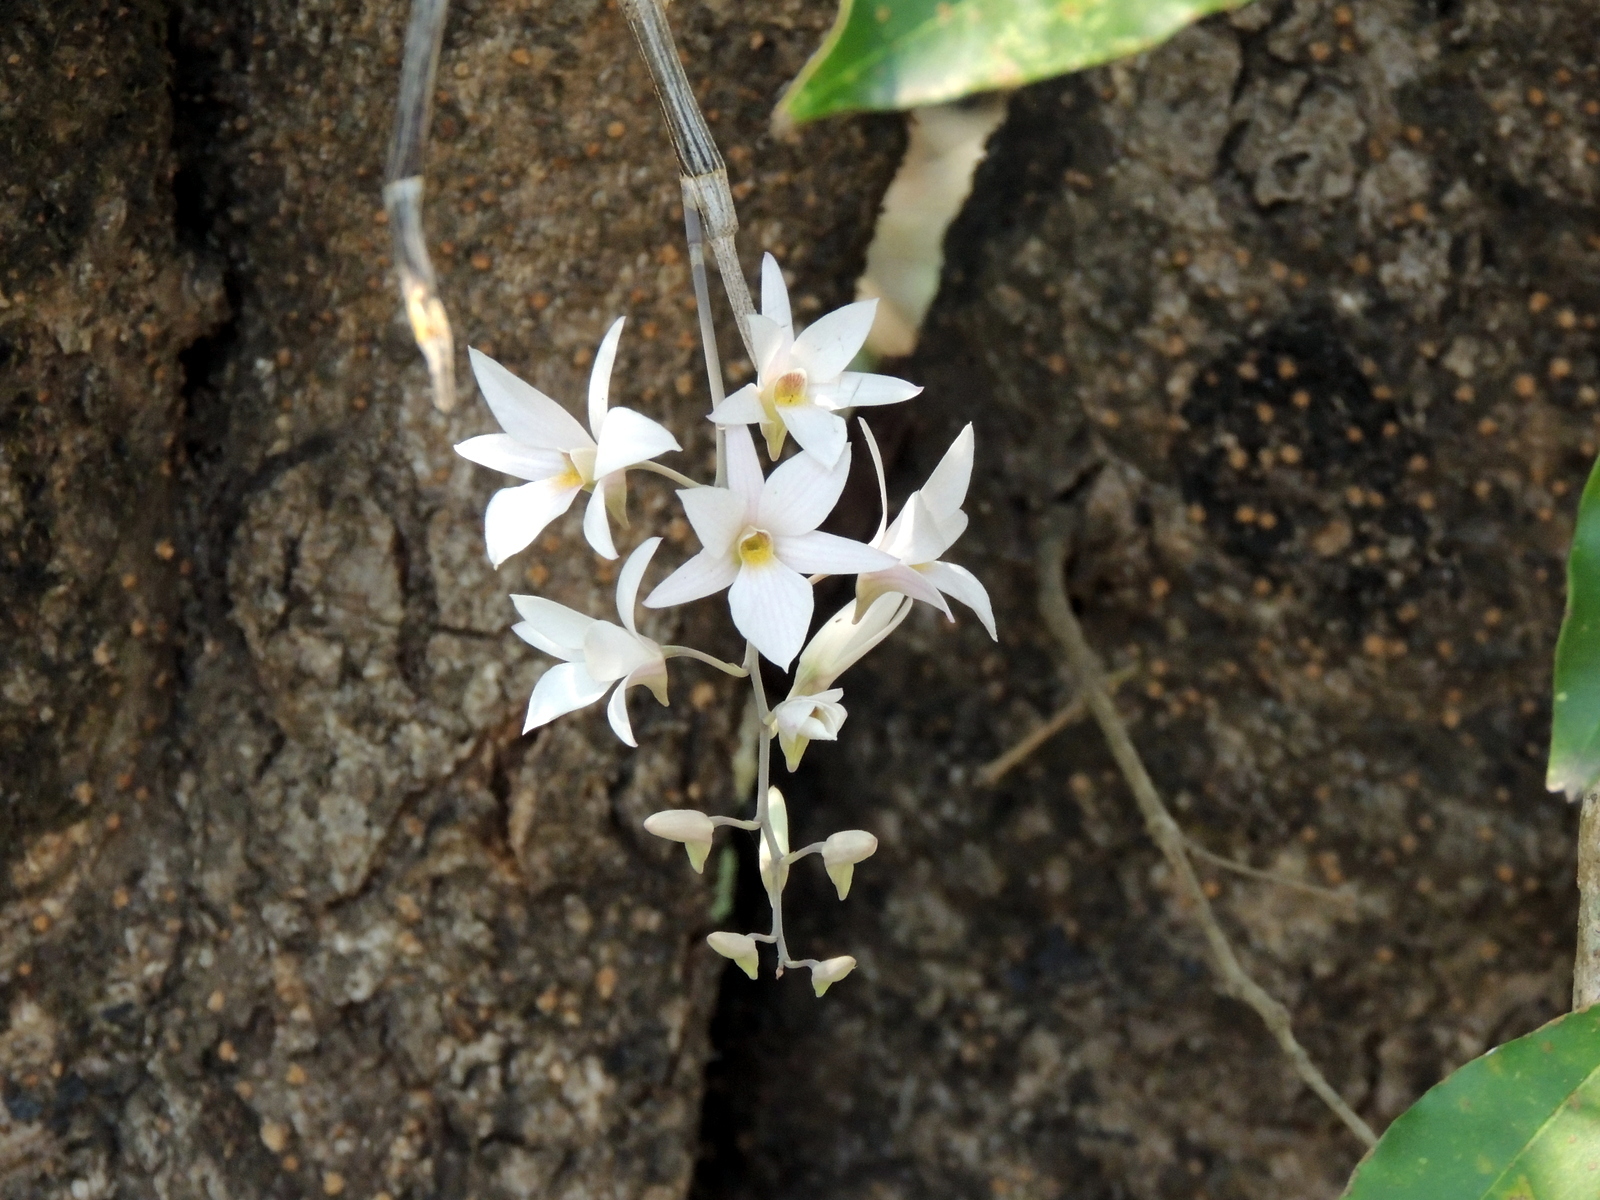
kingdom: Plantae
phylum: Tracheophyta
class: Liliopsida
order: Asparagales
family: Orchidaceae
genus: Dendrobium
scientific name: Dendrobium barbatulum
